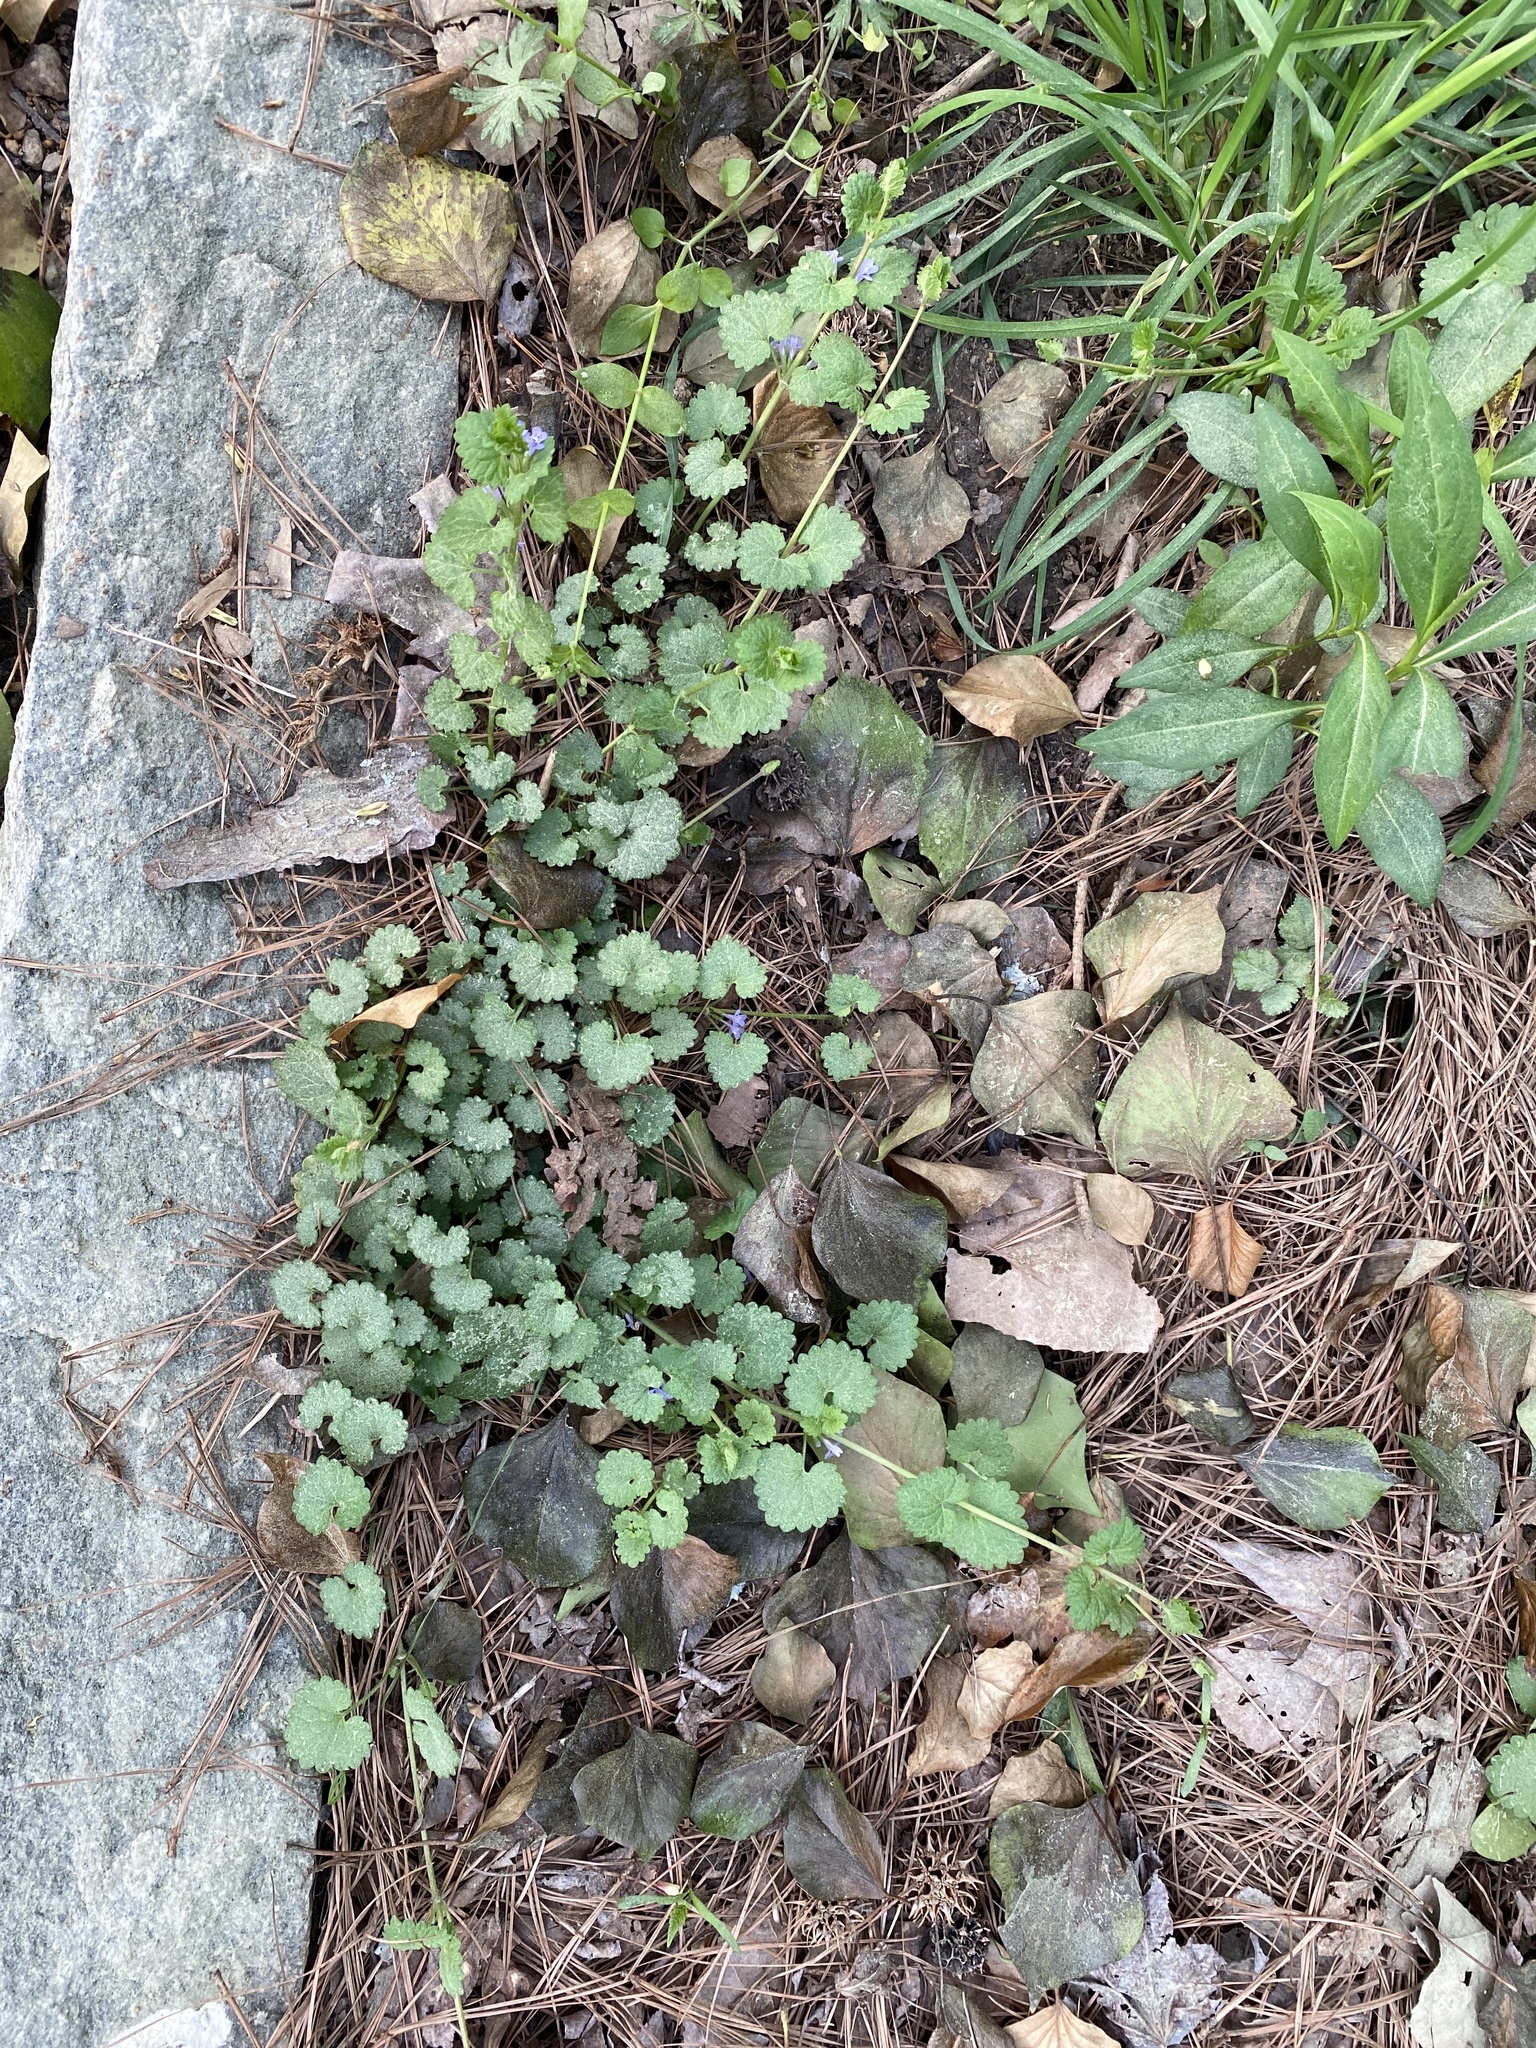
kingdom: Plantae
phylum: Tracheophyta
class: Magnoliopsida
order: Lamiales
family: Lamiaceae
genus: Glechoma
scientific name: Glechoma hederacea
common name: Ground ivy
